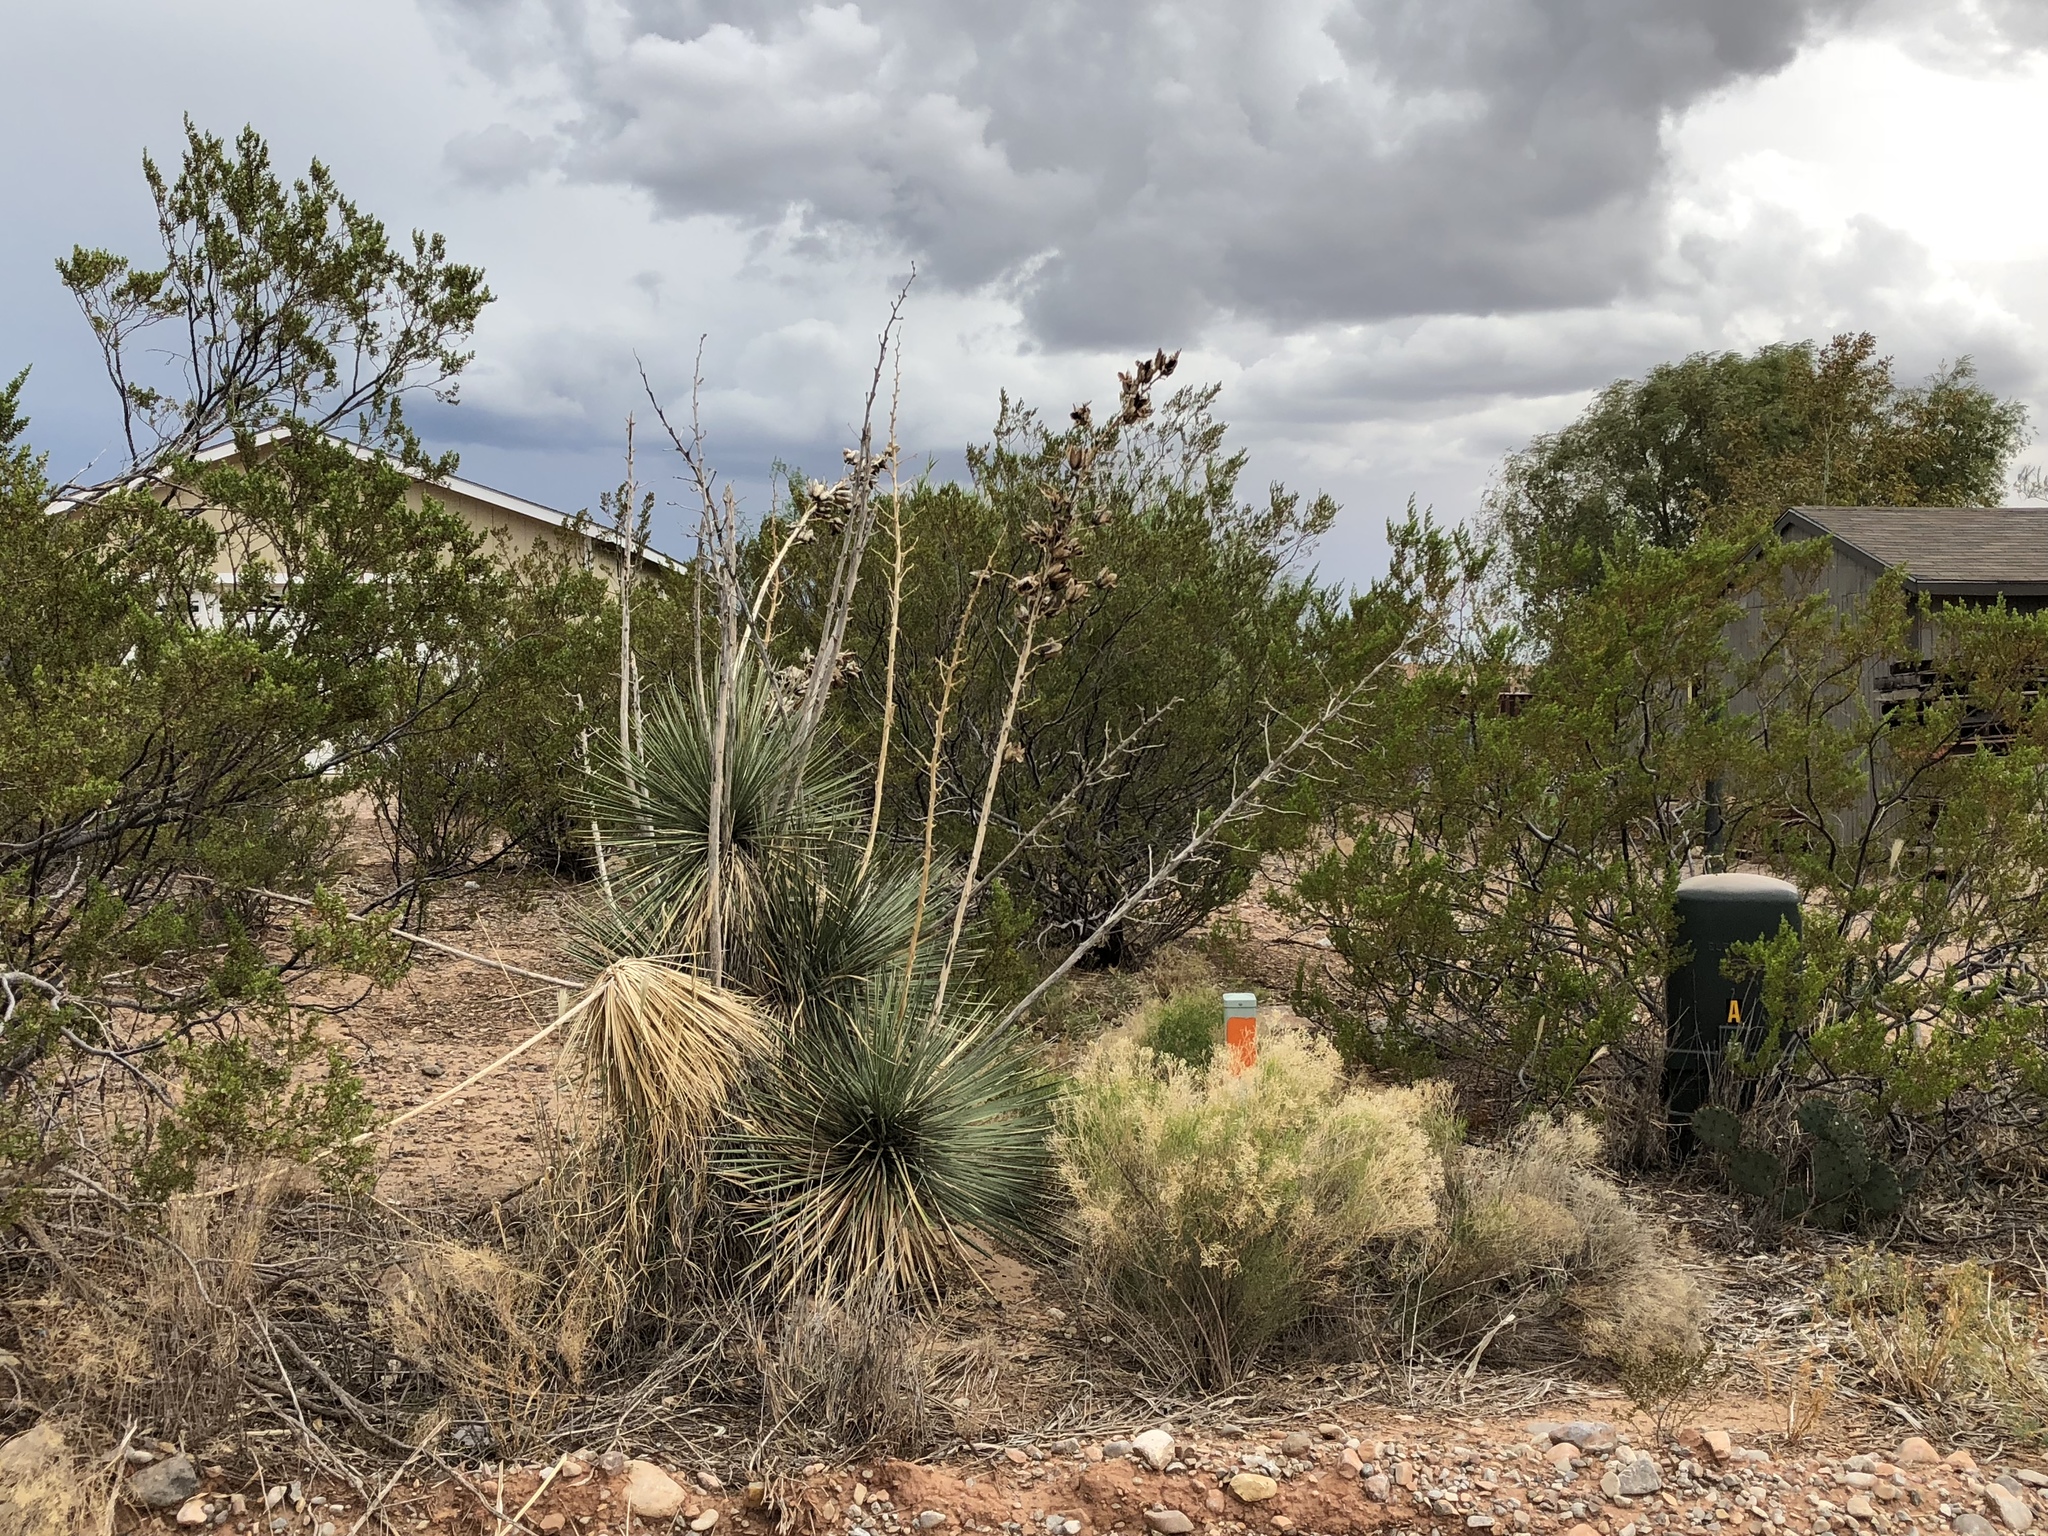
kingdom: Plantae
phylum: Tracheophyta
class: Liliopsida
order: Asparagales
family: Asparagaceae
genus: Yucca
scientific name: Yucca elata
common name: Palmella
